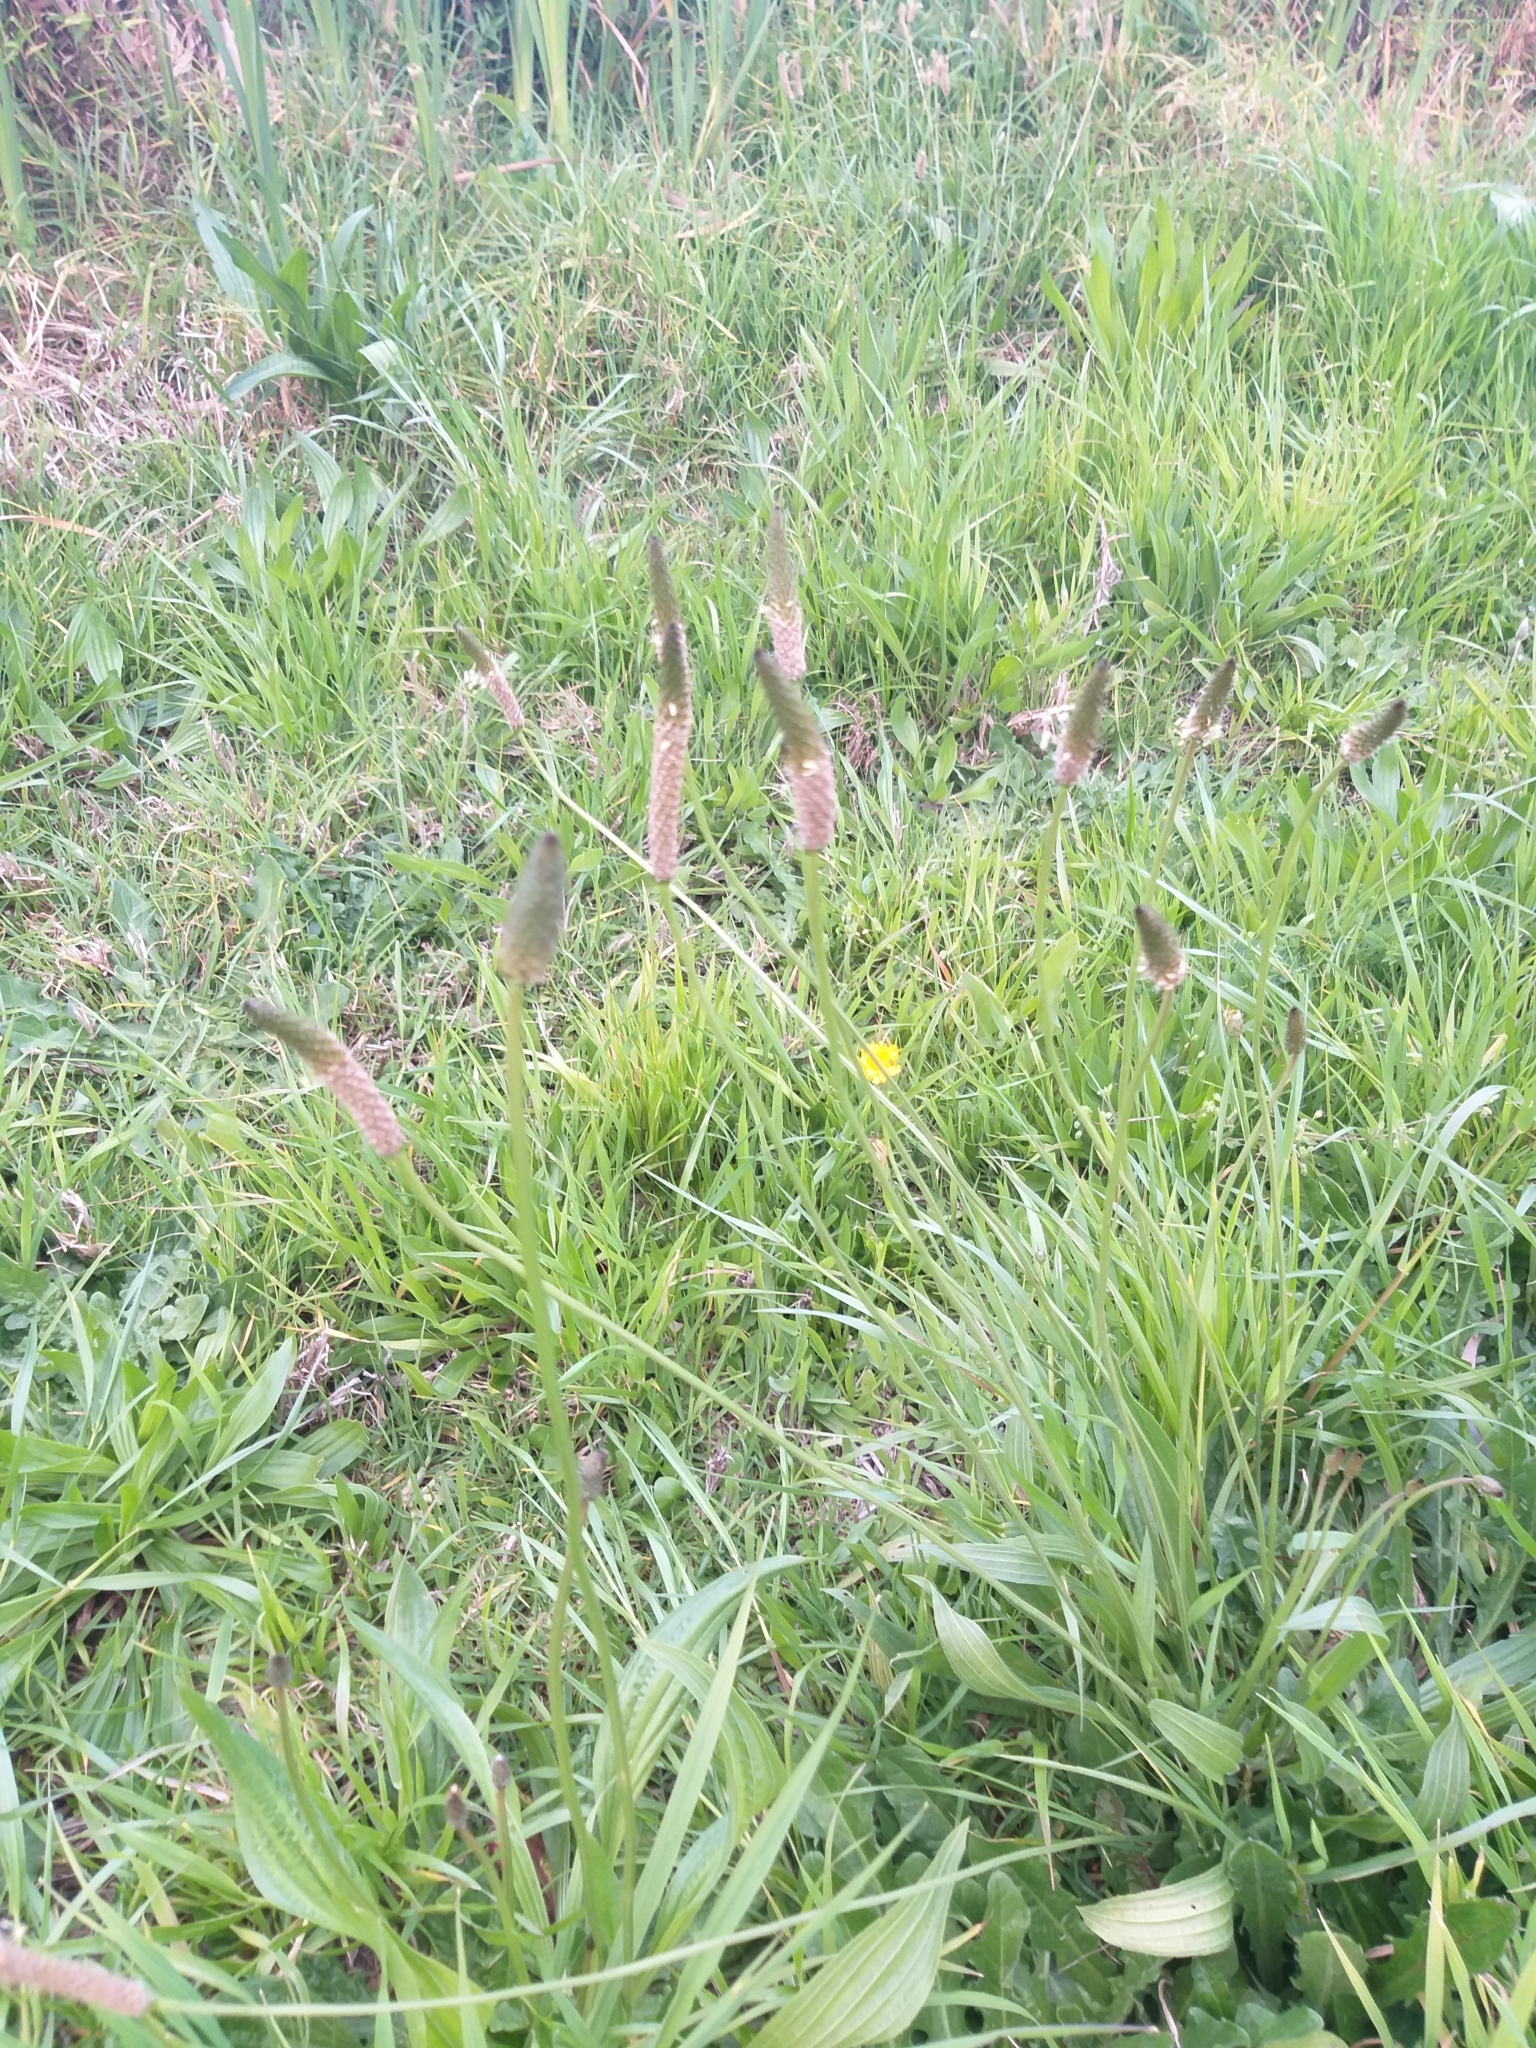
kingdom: Plantae
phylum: Tracheophyta
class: Magnoliopsida
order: Lamiales
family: Plantaginaceae
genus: Plantago
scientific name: Plantago lanceolata
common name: Ribwort plantain
